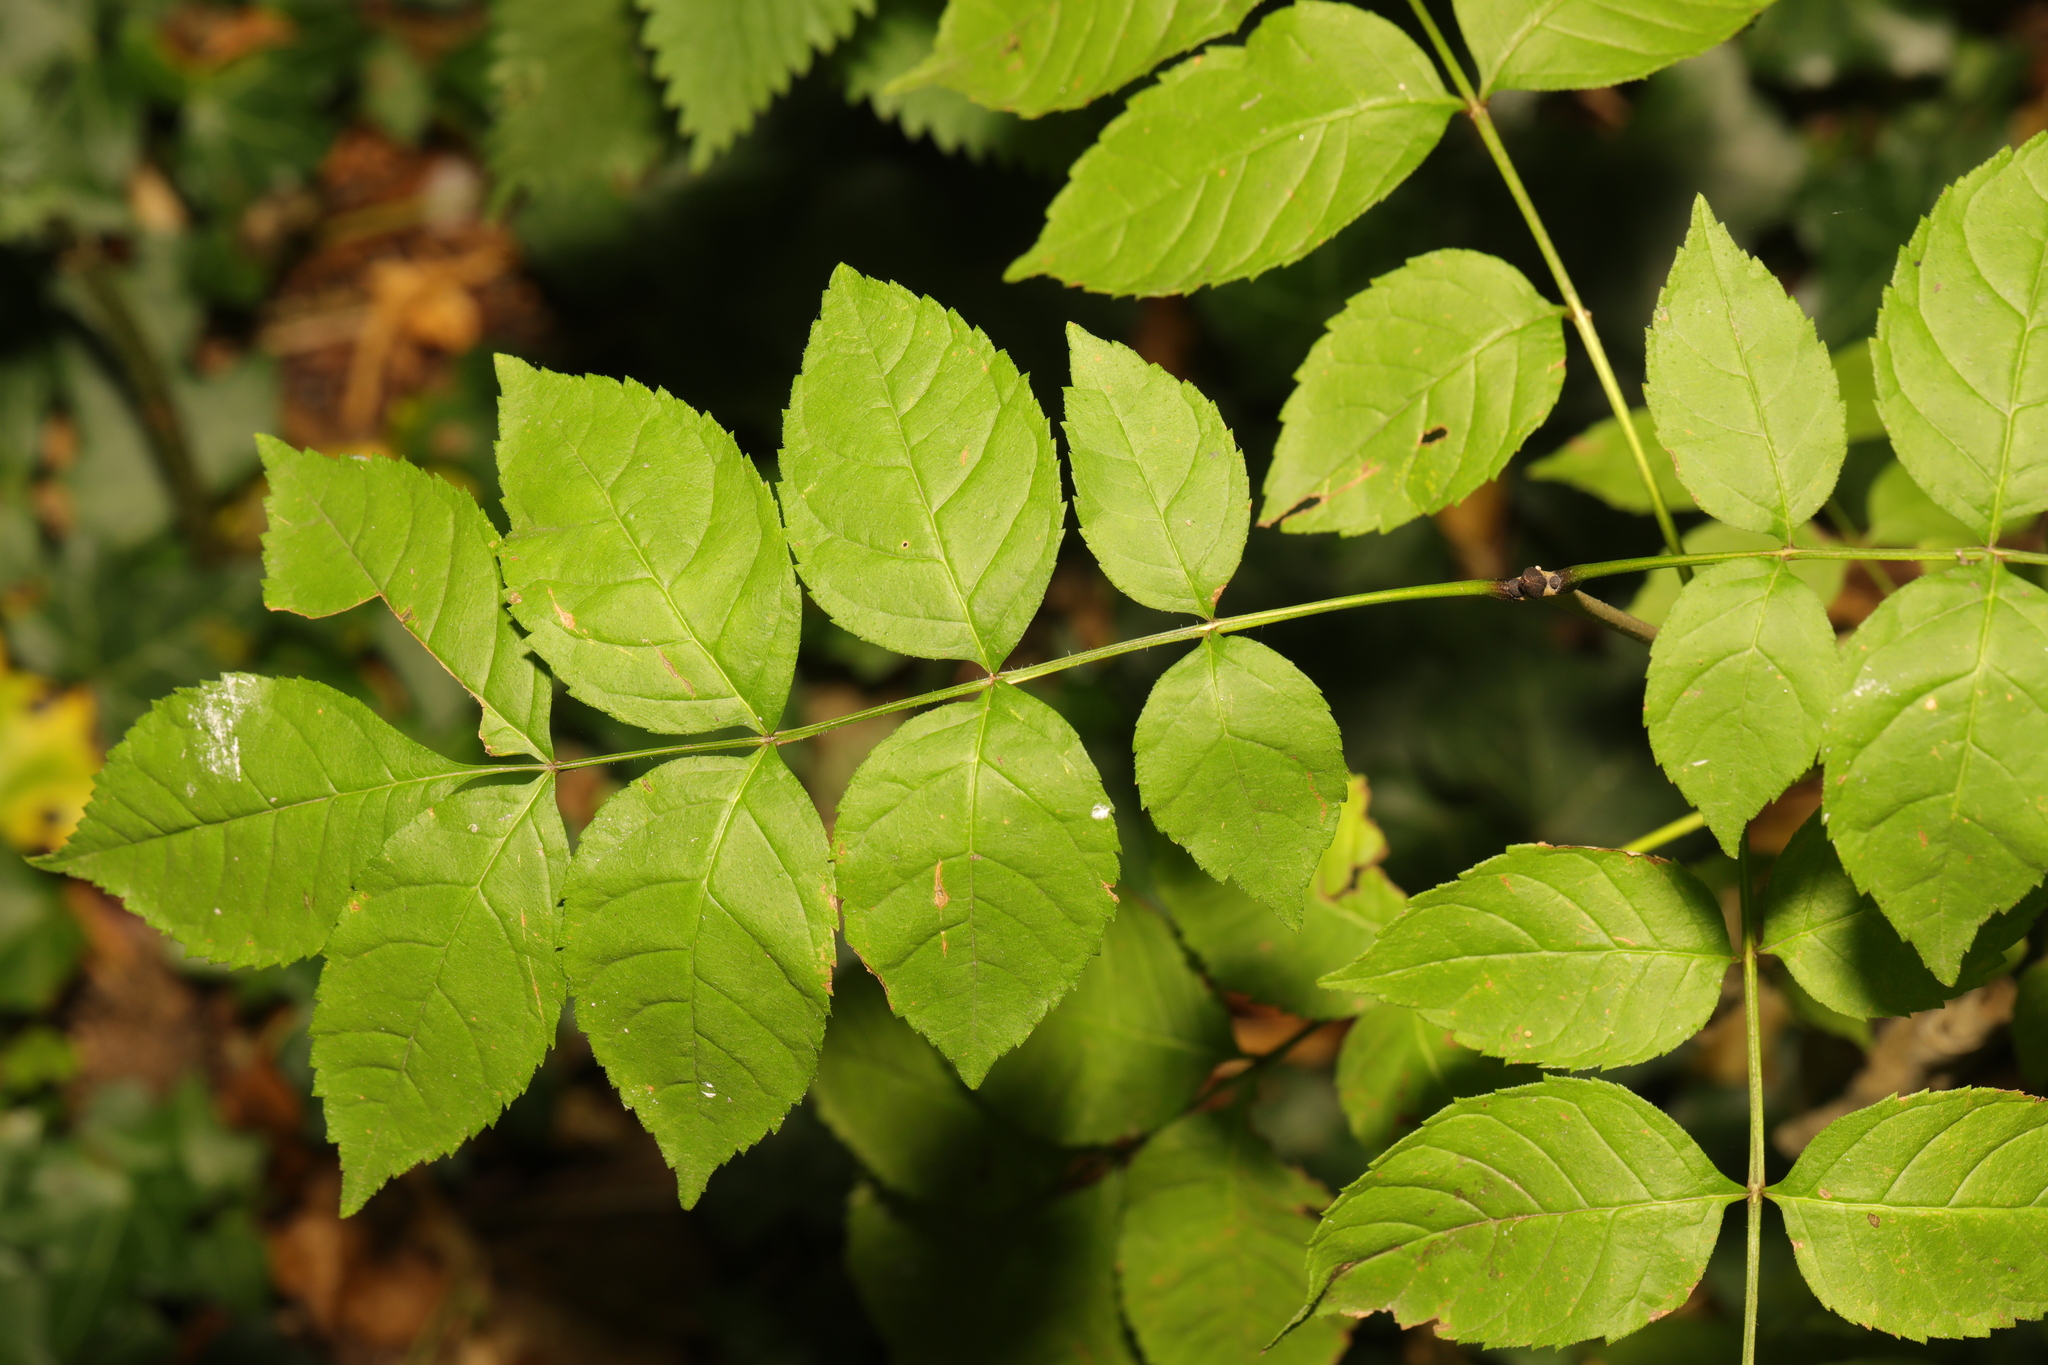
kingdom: Plantae
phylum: Tracheophyta
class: Magnoliopsida
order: Lamiales
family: Oleaceae
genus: Fraxinus
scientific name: Fraxinus excelsior
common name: European ash
